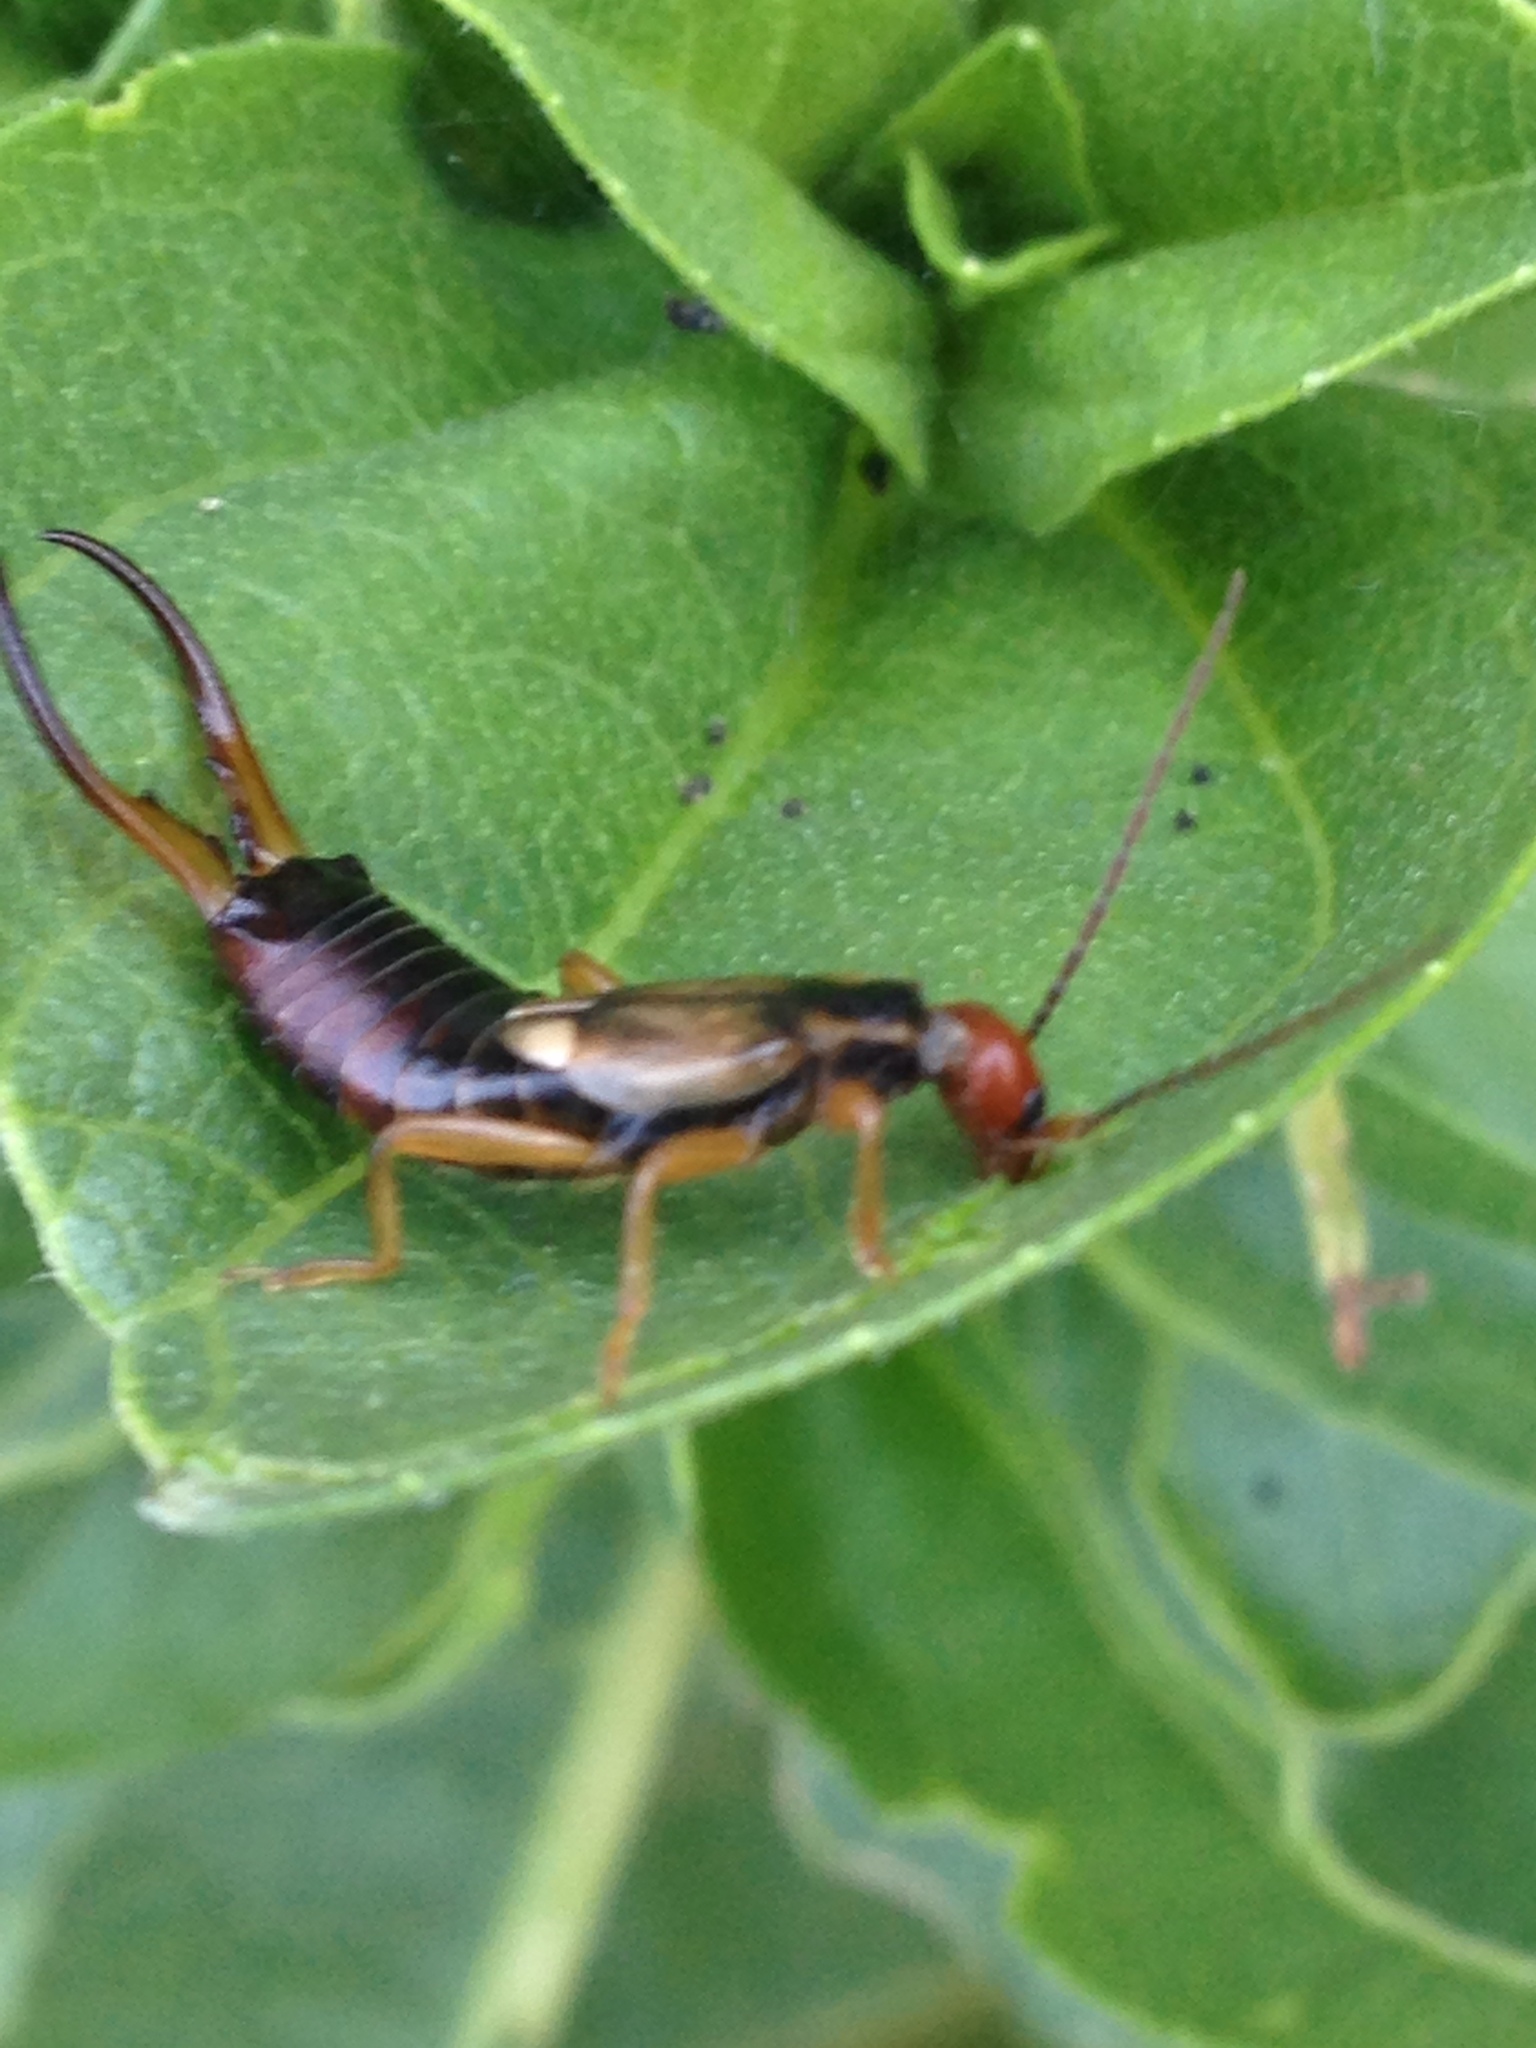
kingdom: Animalia
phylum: Arthropoda
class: Insecta
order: Dermaptera
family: Forficulidae
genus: Forficula
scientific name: Forficula
